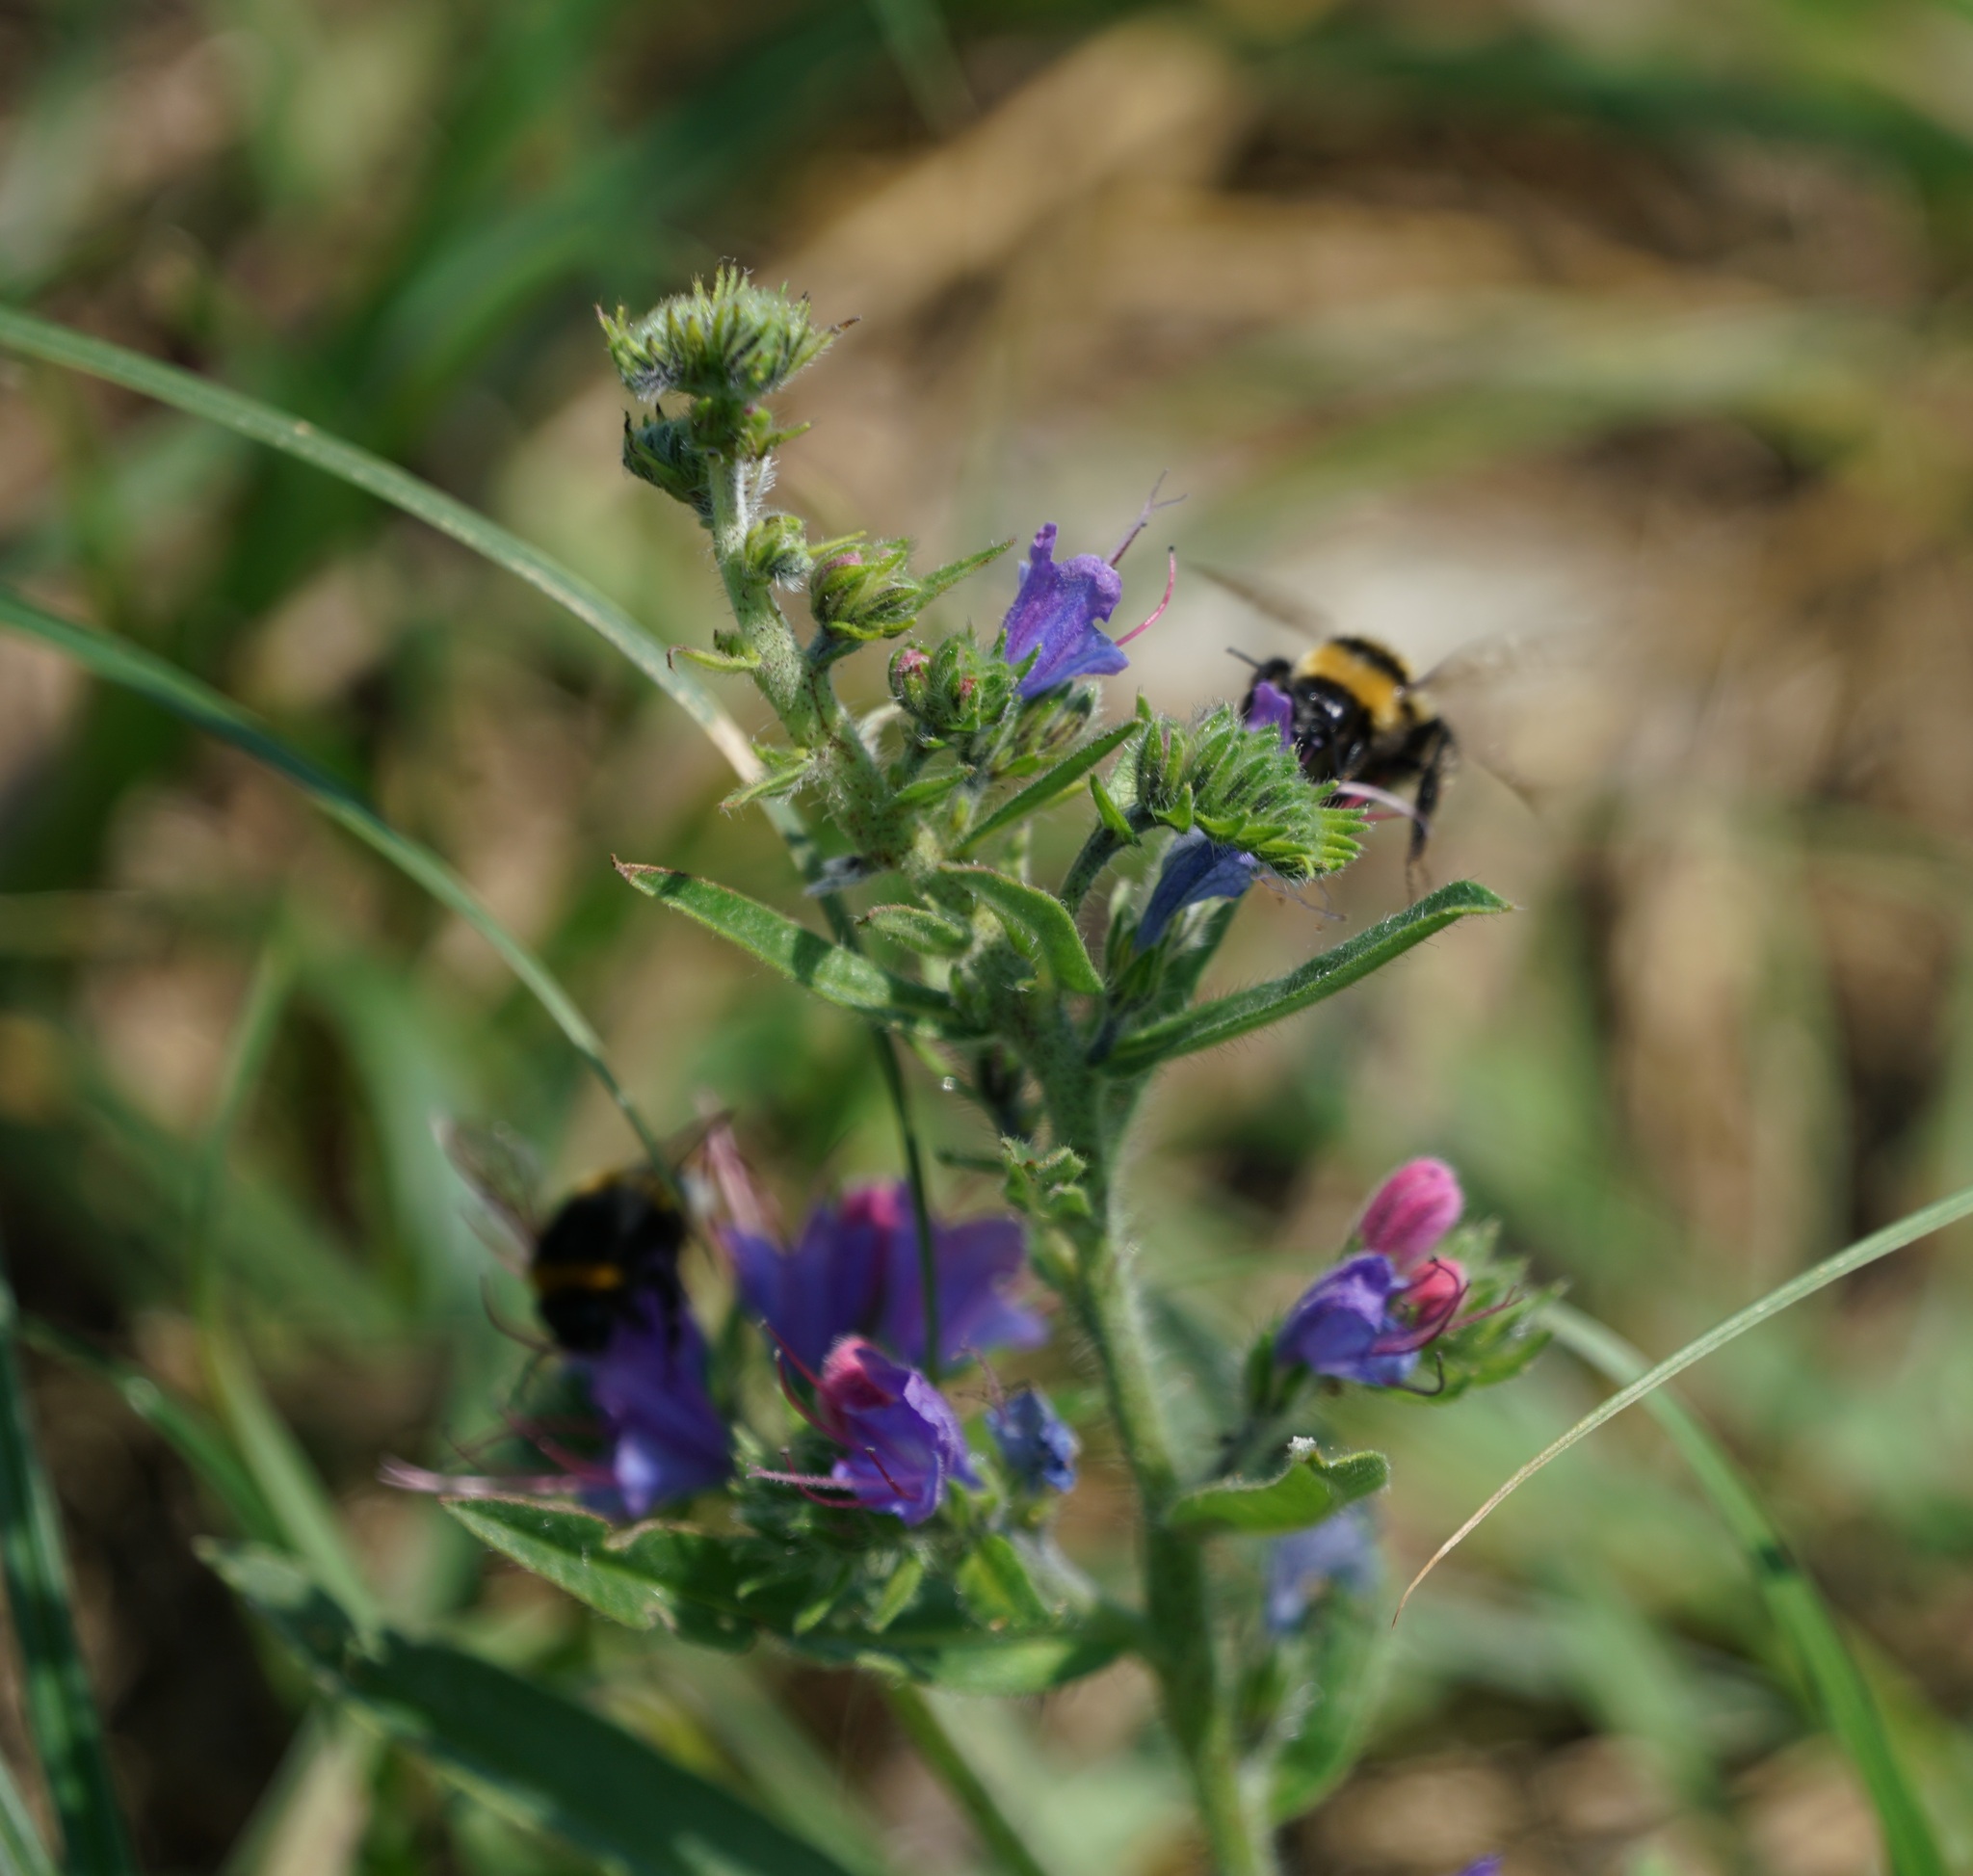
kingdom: Plantae
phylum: Tracheophyta
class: Magnoliopsida
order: Boraginales
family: Boraginaceae
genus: Echium
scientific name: Echium vulgare
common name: Common viper's bugloss
